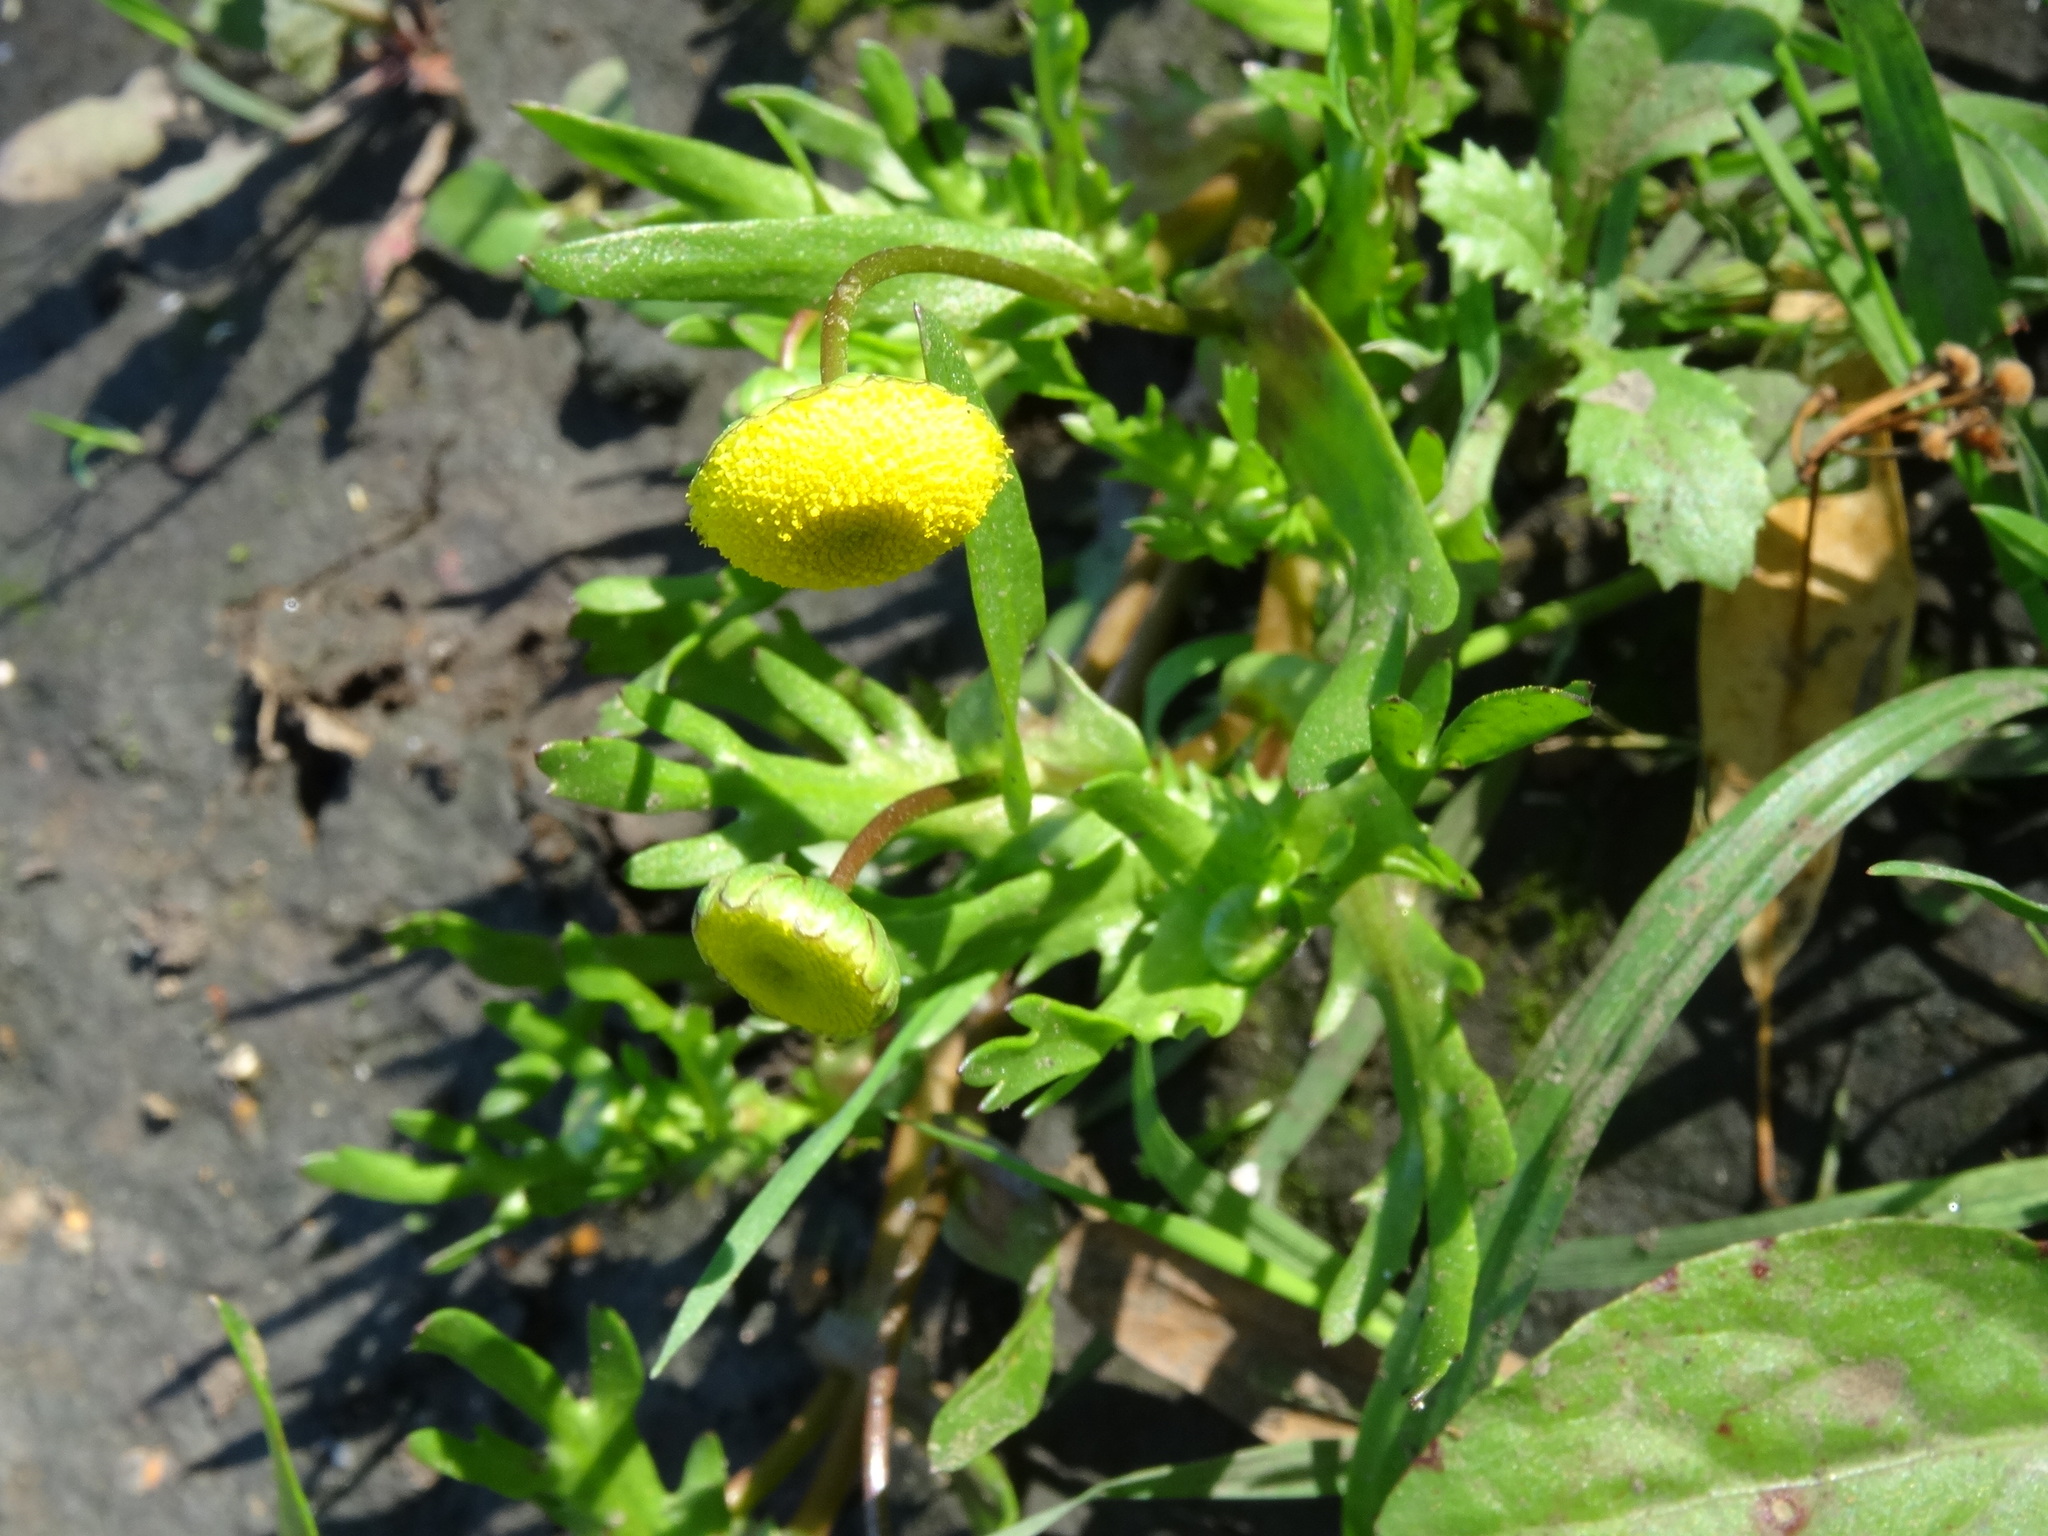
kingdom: Plantae
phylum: Tracheophyta
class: Magnoliopsida
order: Asterales
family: Asteraceae
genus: Cotula
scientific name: Cotula coronopifolia
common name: Buttonweed
